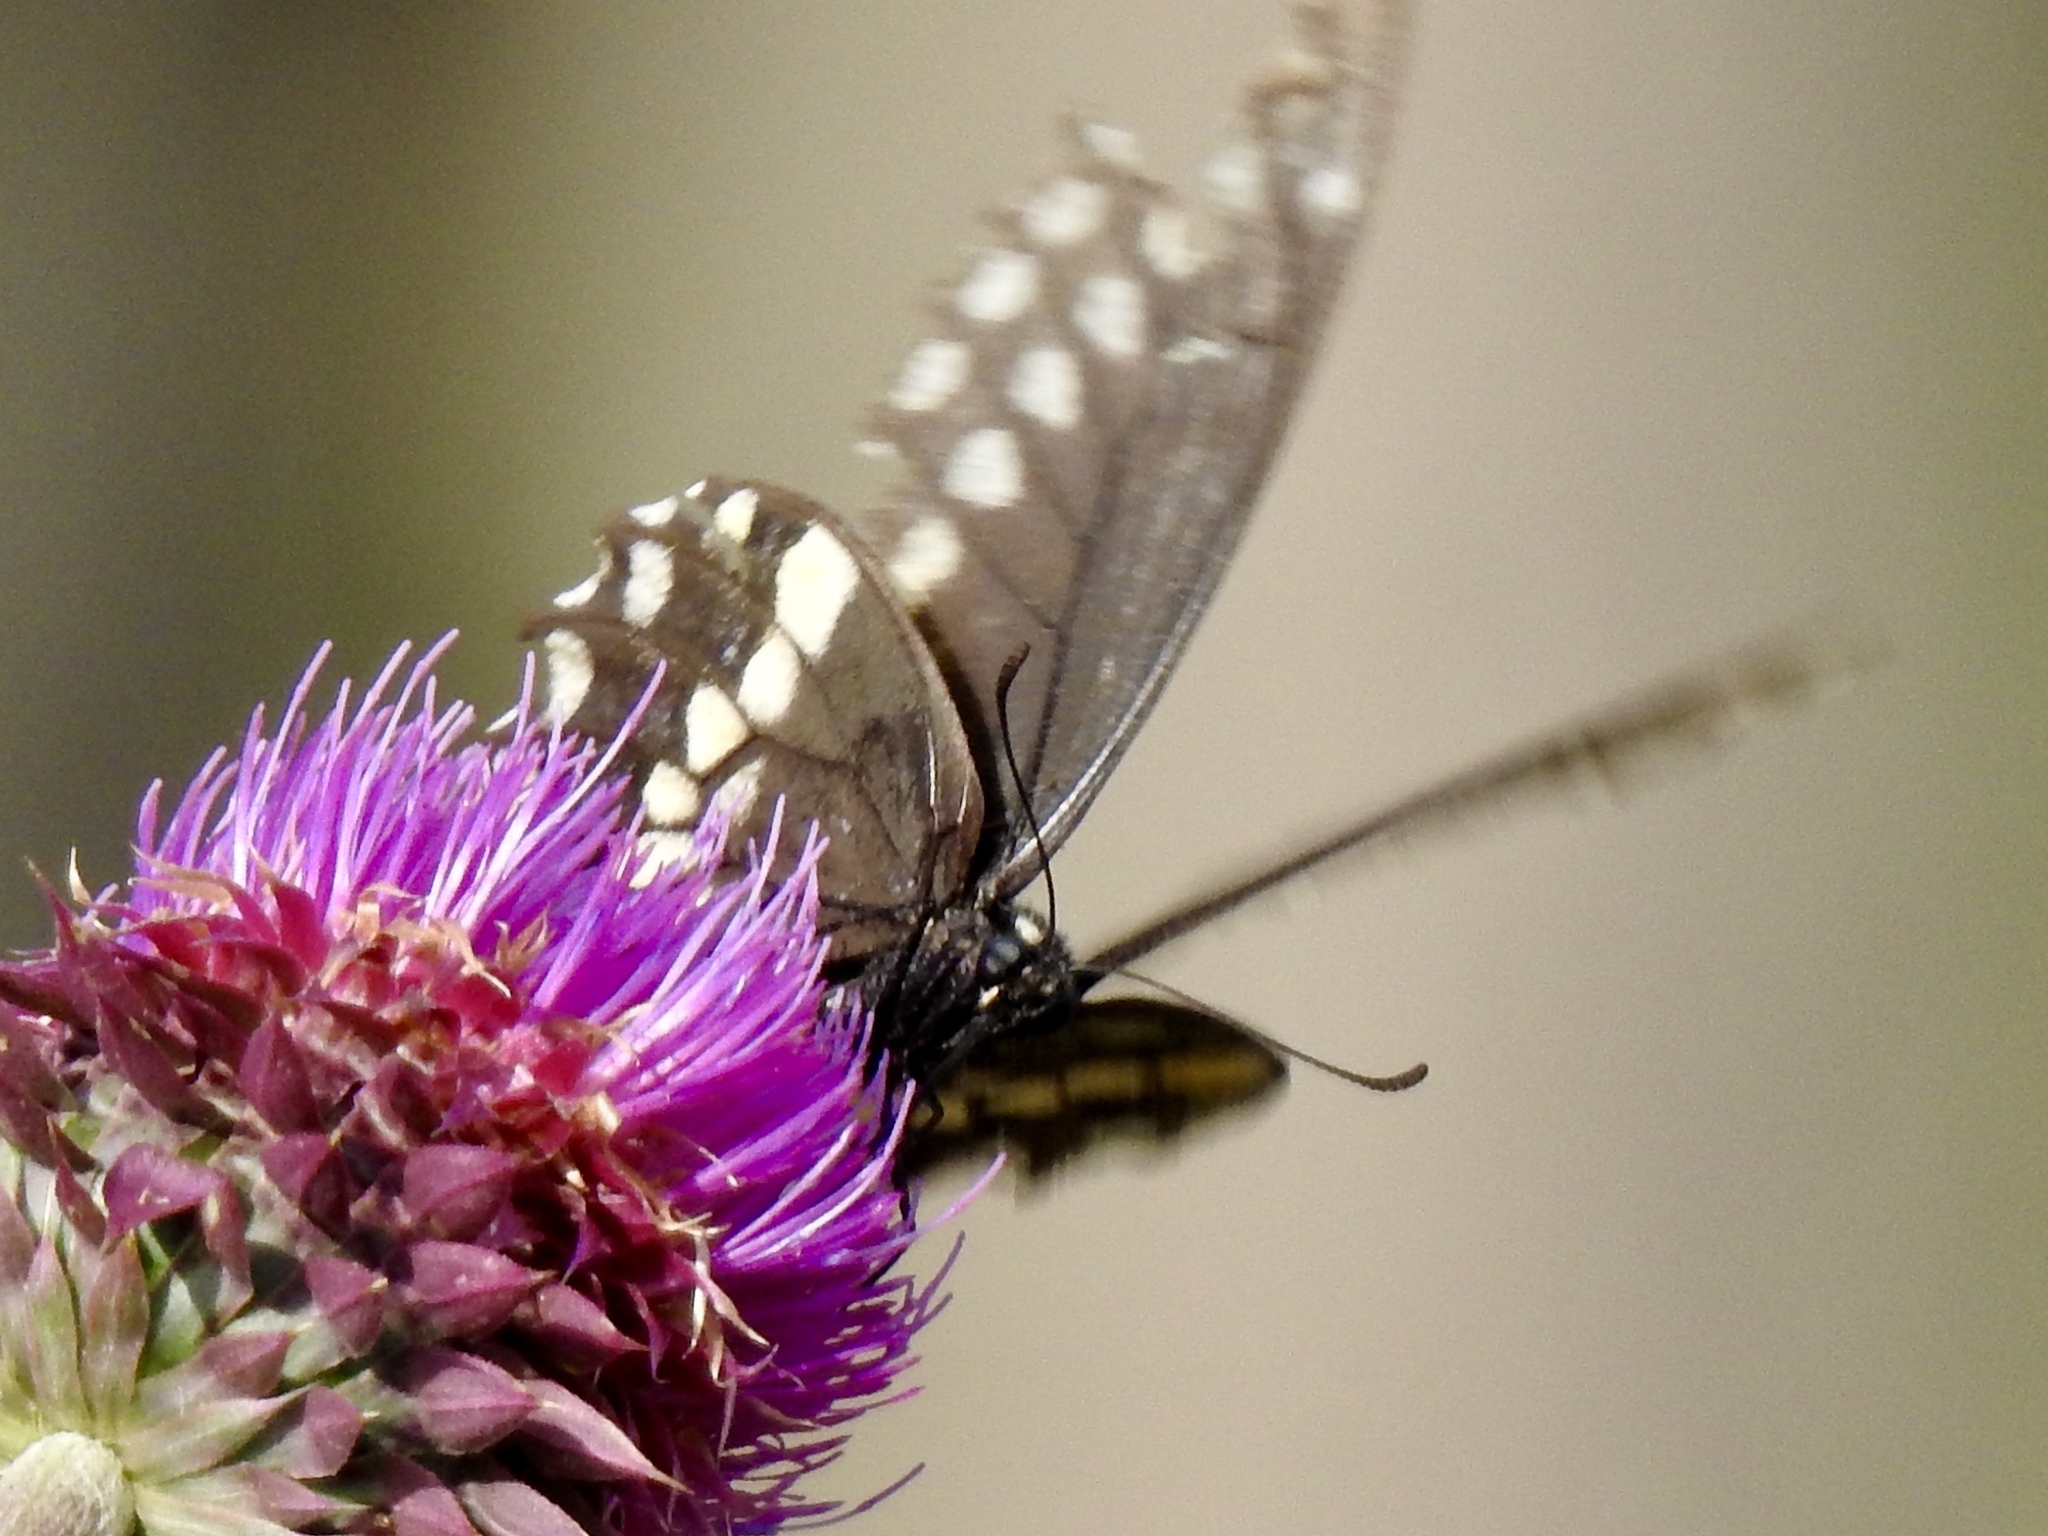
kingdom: Animalia
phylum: Arthropoda
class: Insecta
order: Lepidoptera
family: Papilionidae
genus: Papilio
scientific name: Papilio polyxenes
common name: Black swallowtail
